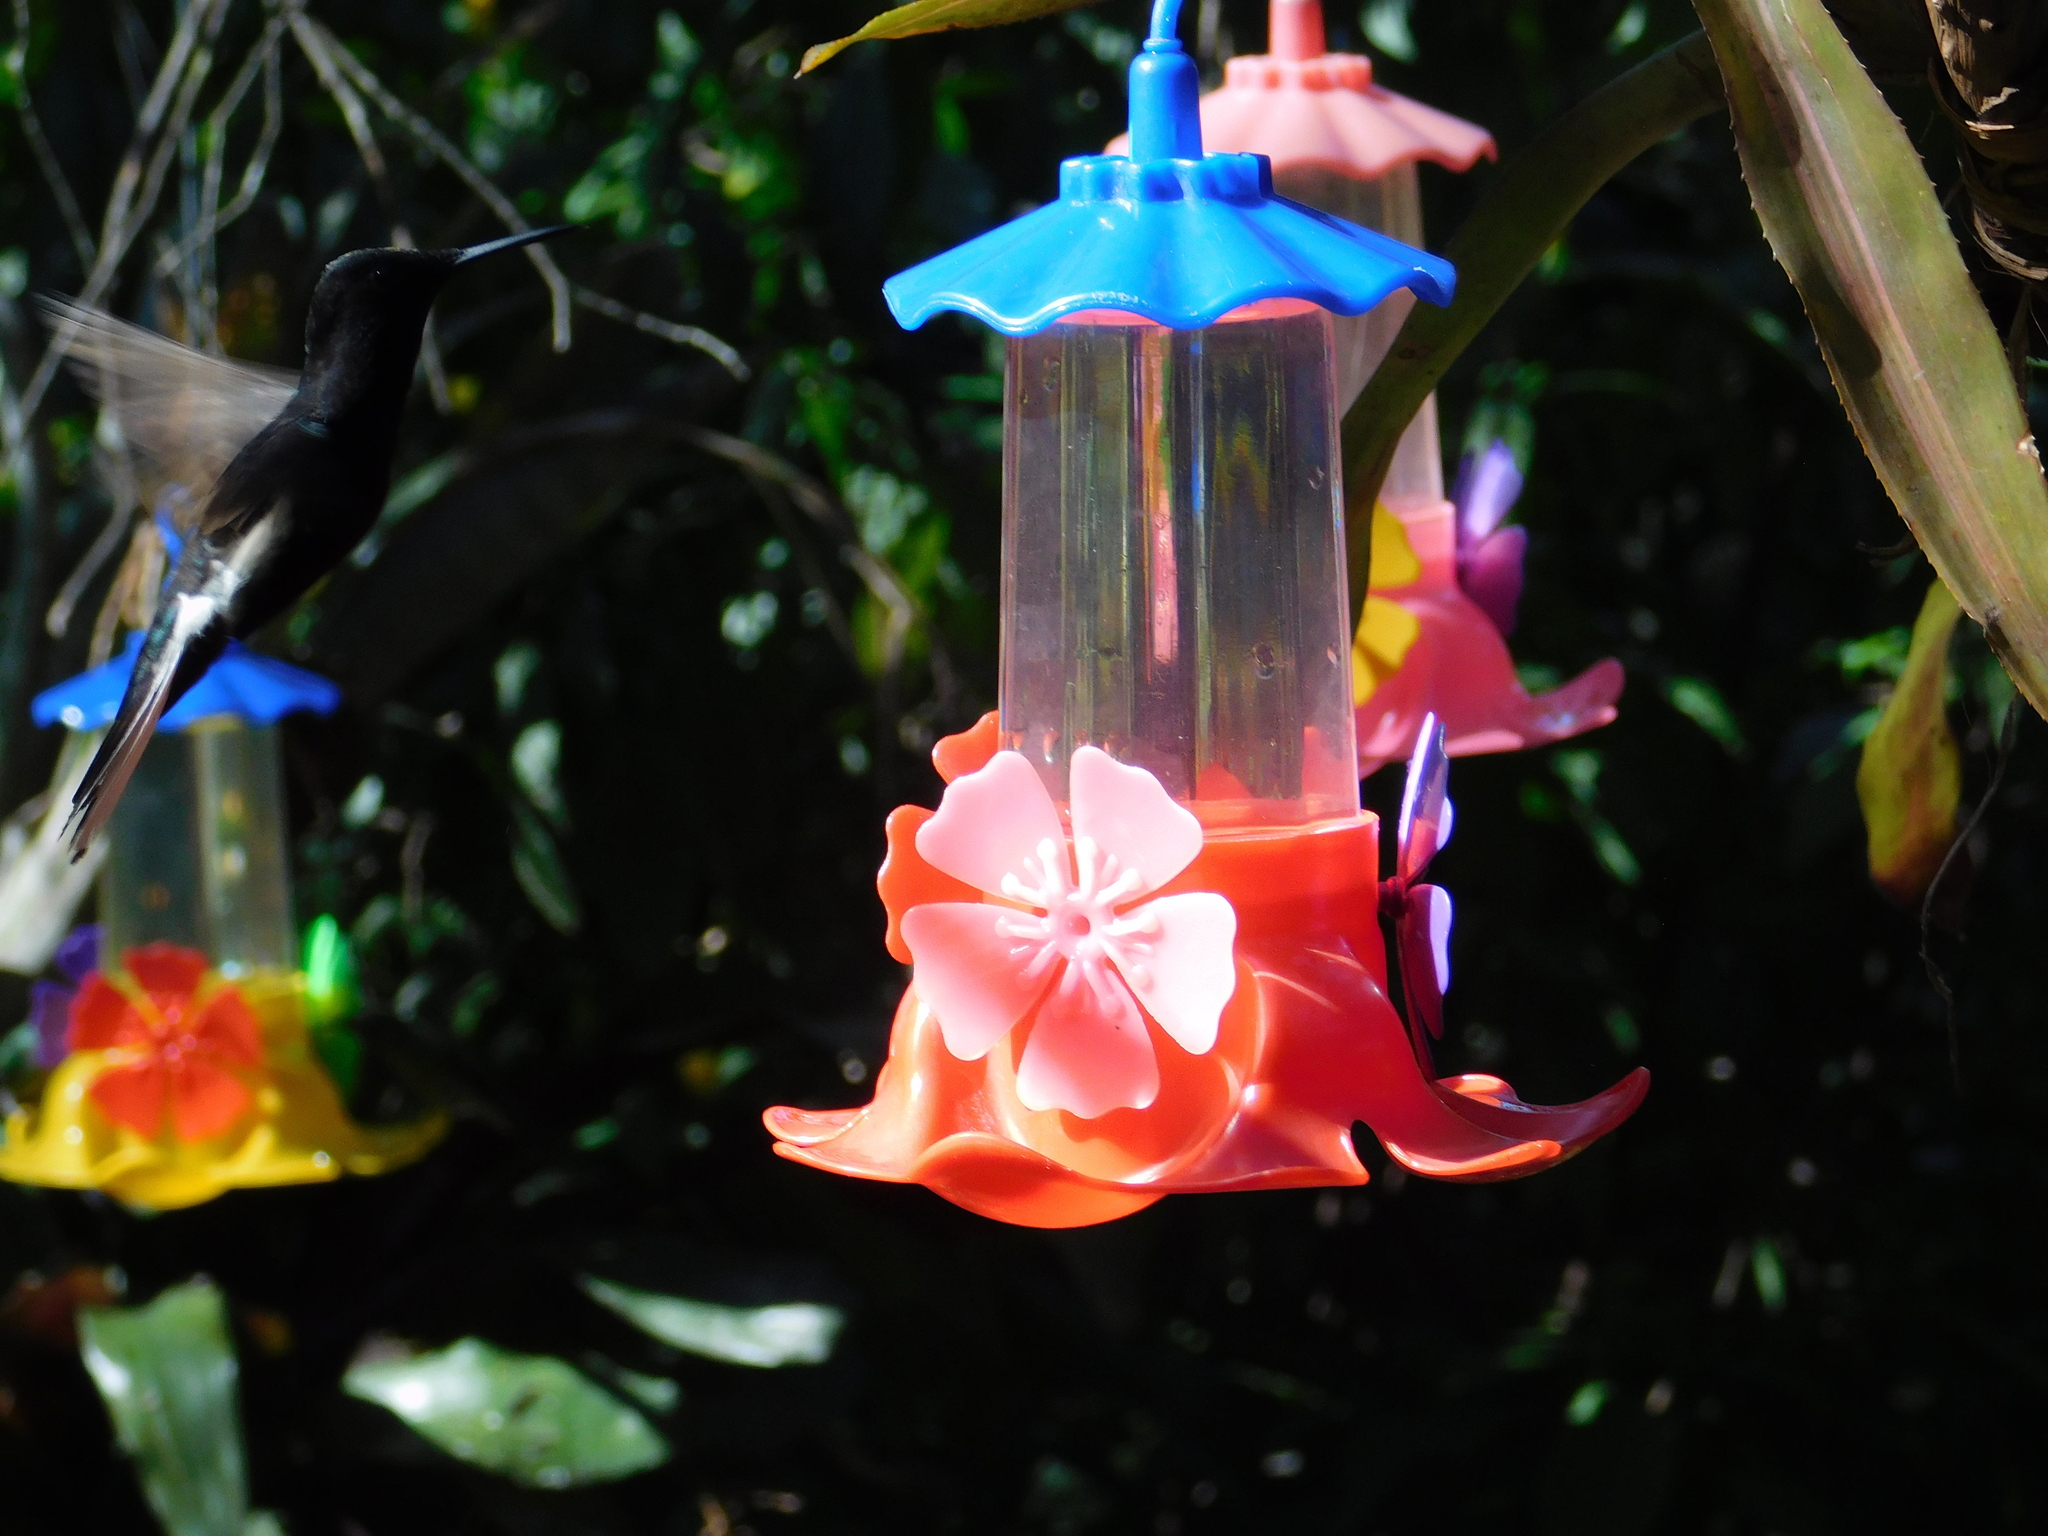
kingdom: Animalia
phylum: Chordata
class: Aves
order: Apodiformes
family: Trochilidae
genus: Florisuga
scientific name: Florisuga fusca
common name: Black jacobin
